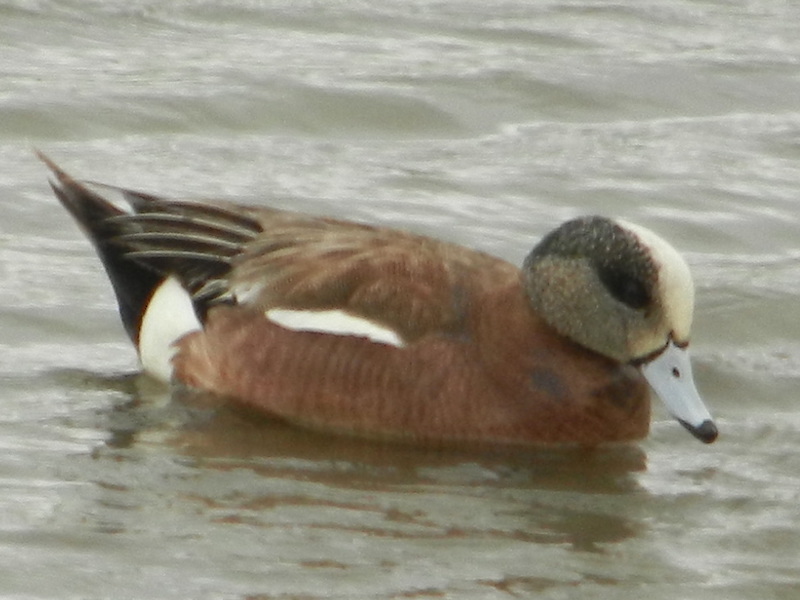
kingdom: Animalia
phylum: Chordata
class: Aves
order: Anseriformes
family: Anatidae
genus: Mareca
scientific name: Mareca americana
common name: American wigeon
